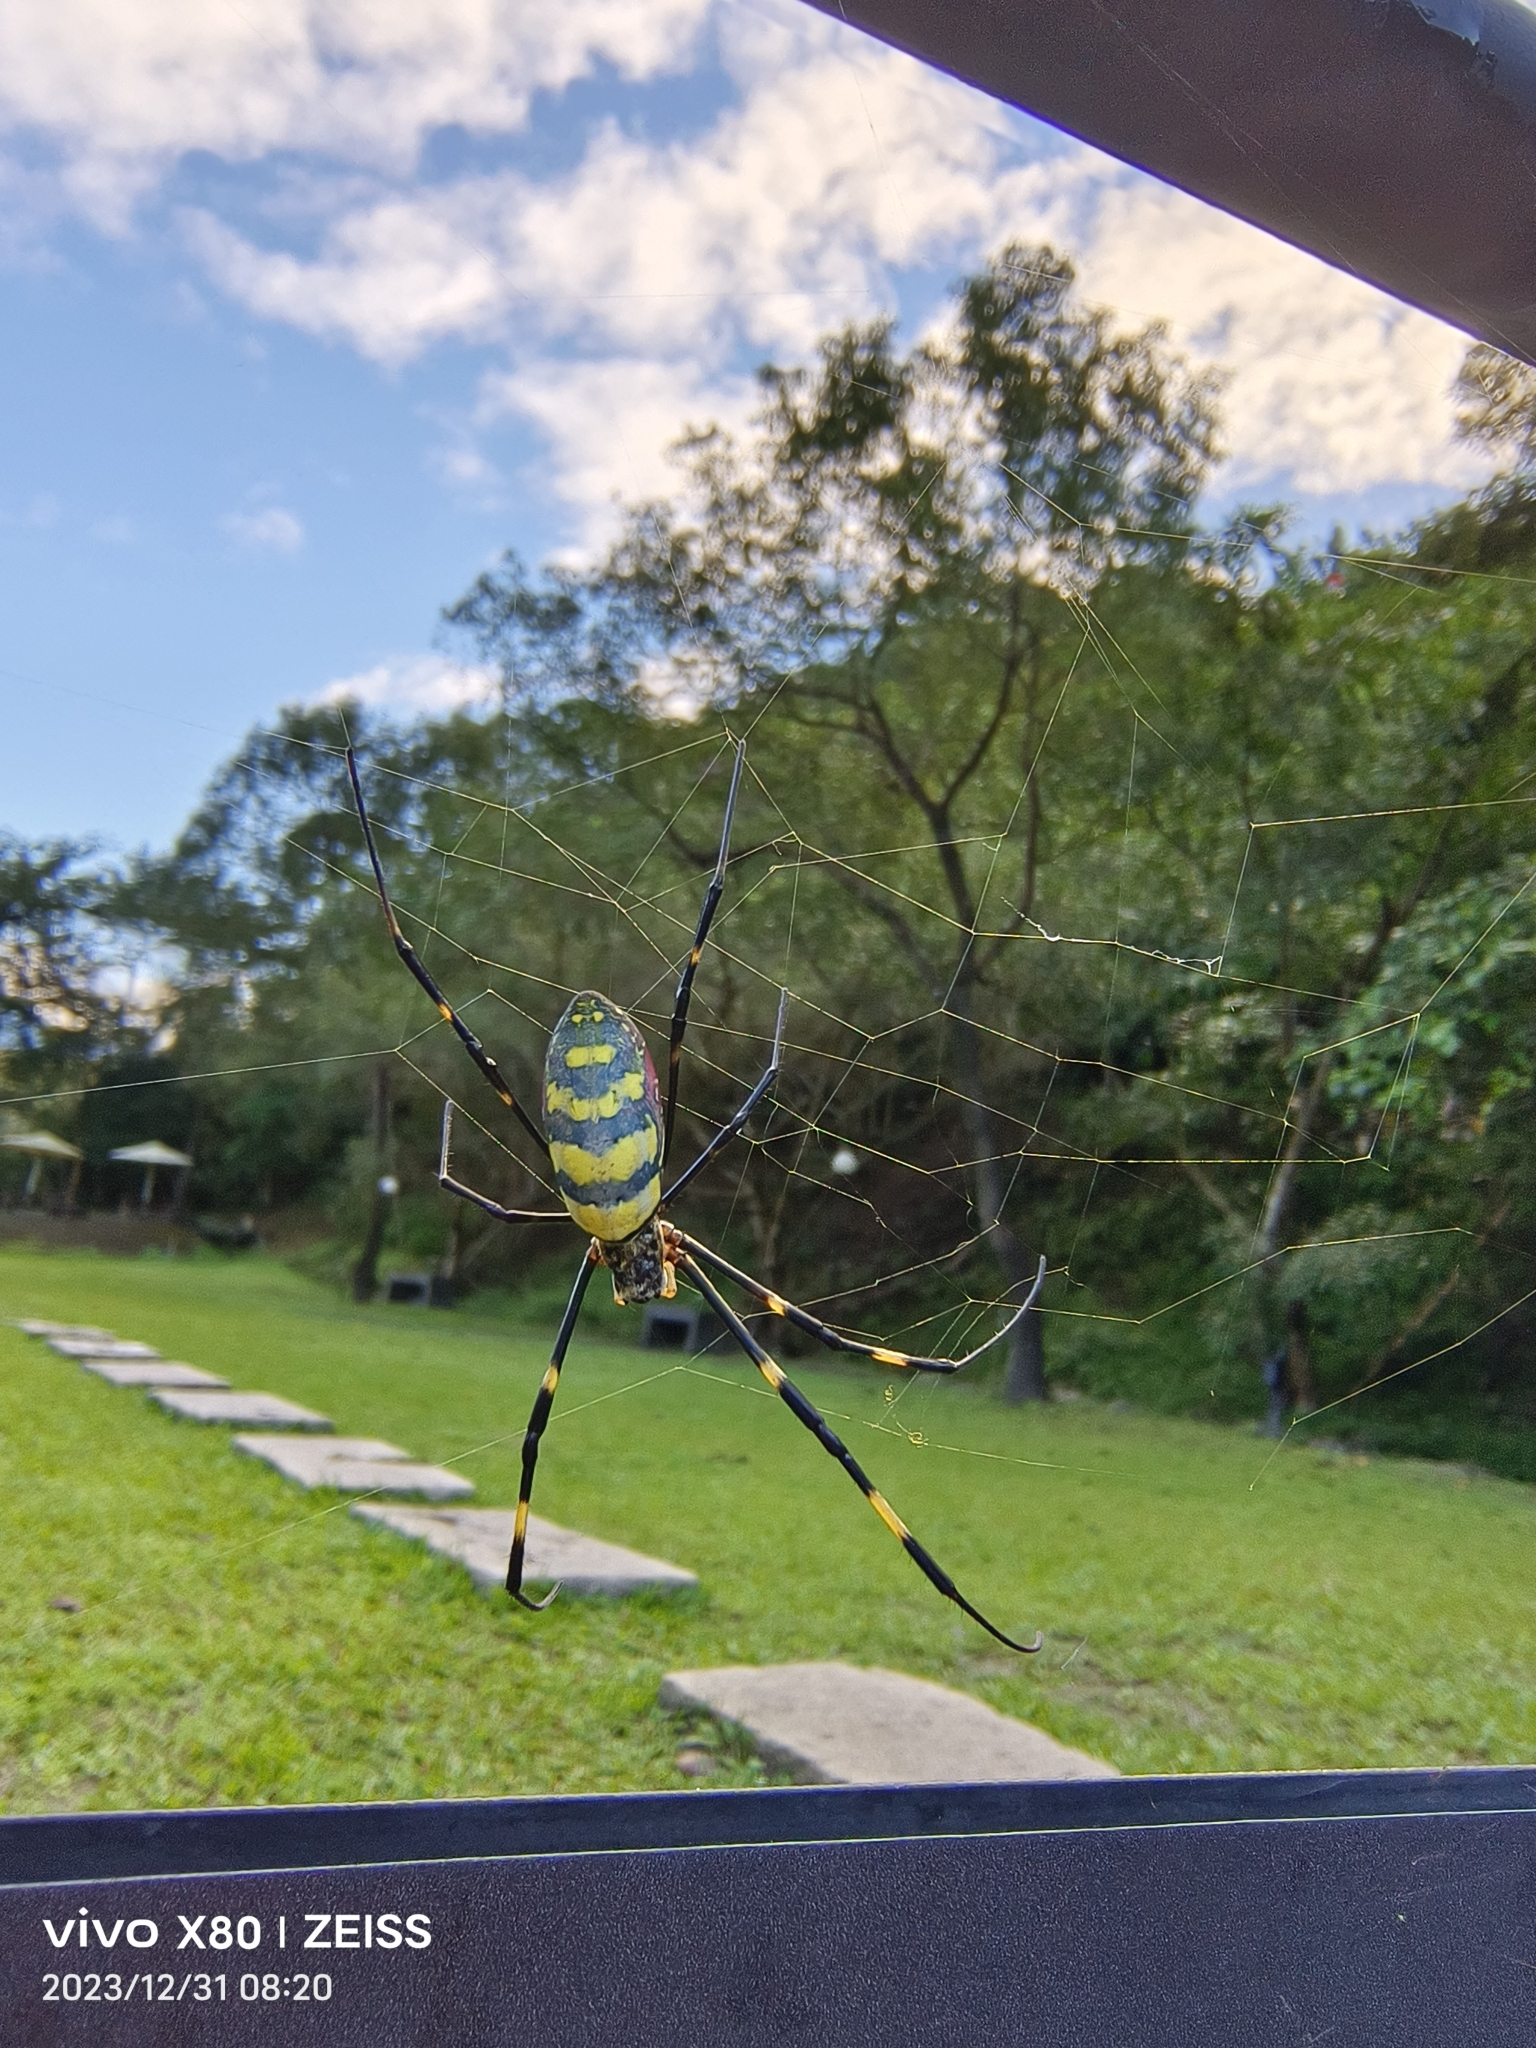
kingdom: Animalia
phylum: Arthropoda
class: Arachnida
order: Araneae
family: Araneidae
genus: Trichonephila
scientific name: Trichonephila clavata
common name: Jorō spider
